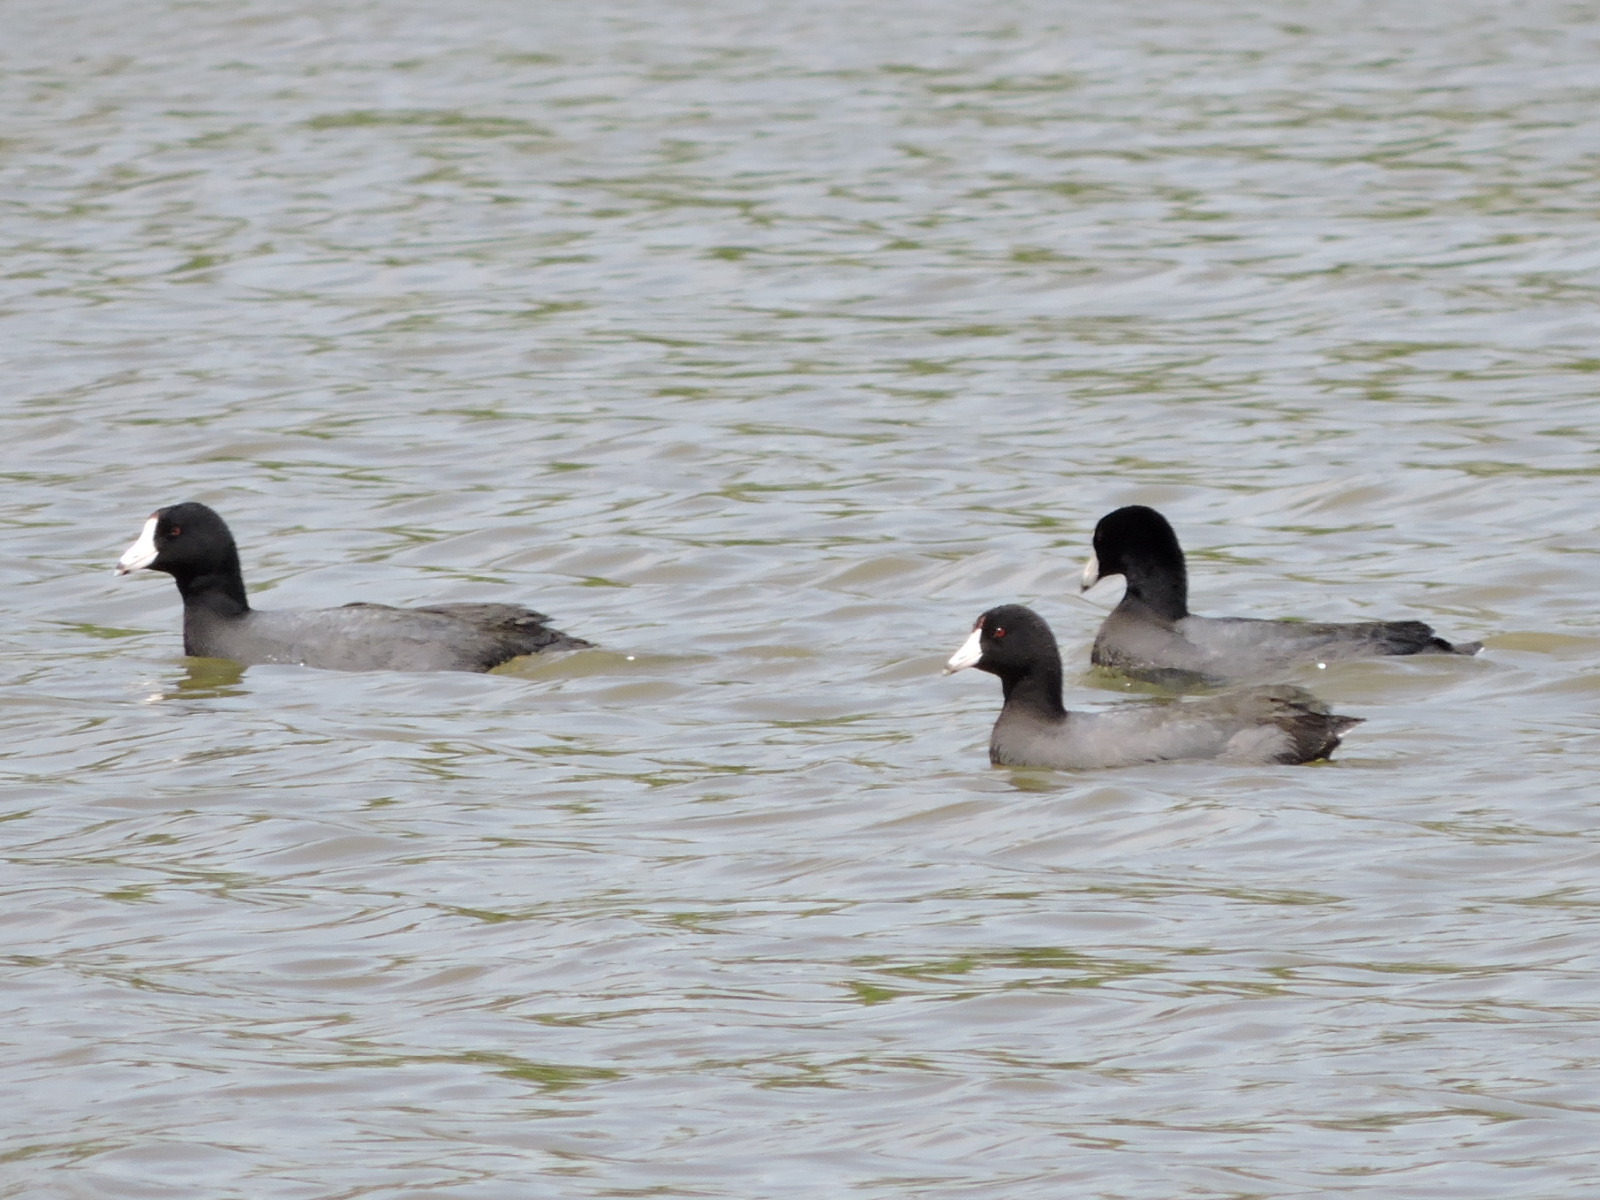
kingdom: Animalia
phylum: Chordata
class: Aves
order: Gruiformes
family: Rallidae
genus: Fulica
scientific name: Fulica americana
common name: American coot
